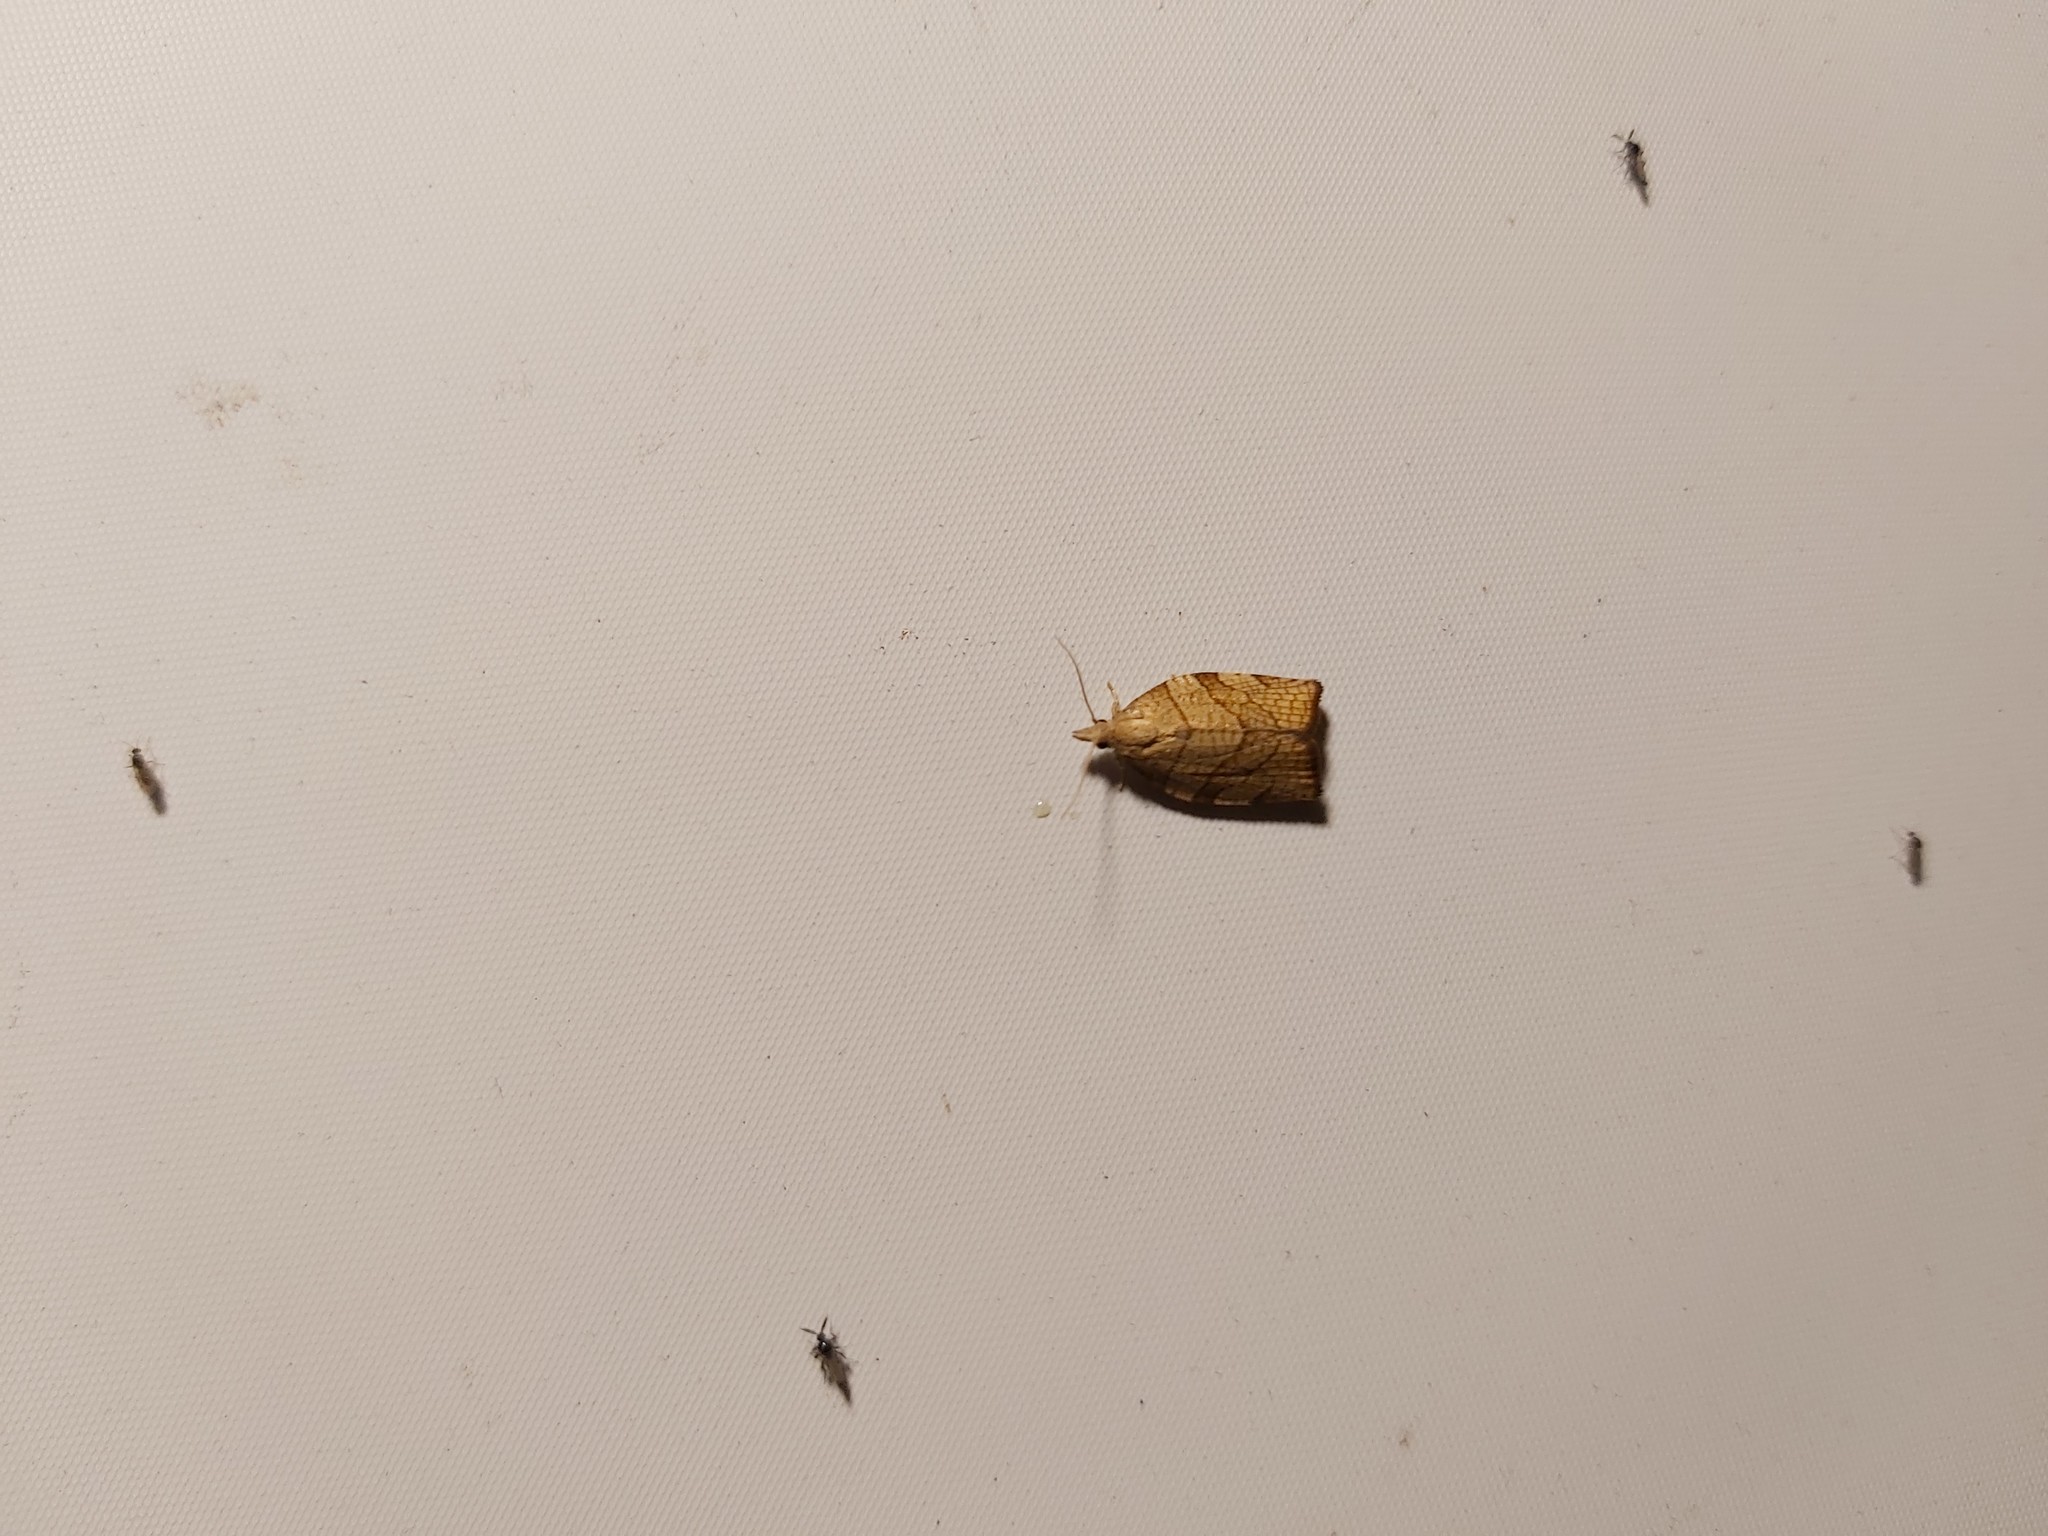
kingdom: Animalia
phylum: Arthropoda
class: Insecta
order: Lepidoptera
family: Tortricidae
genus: Pandemis
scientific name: Pandemis corylana
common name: Chequered fruit-tree tortrix
